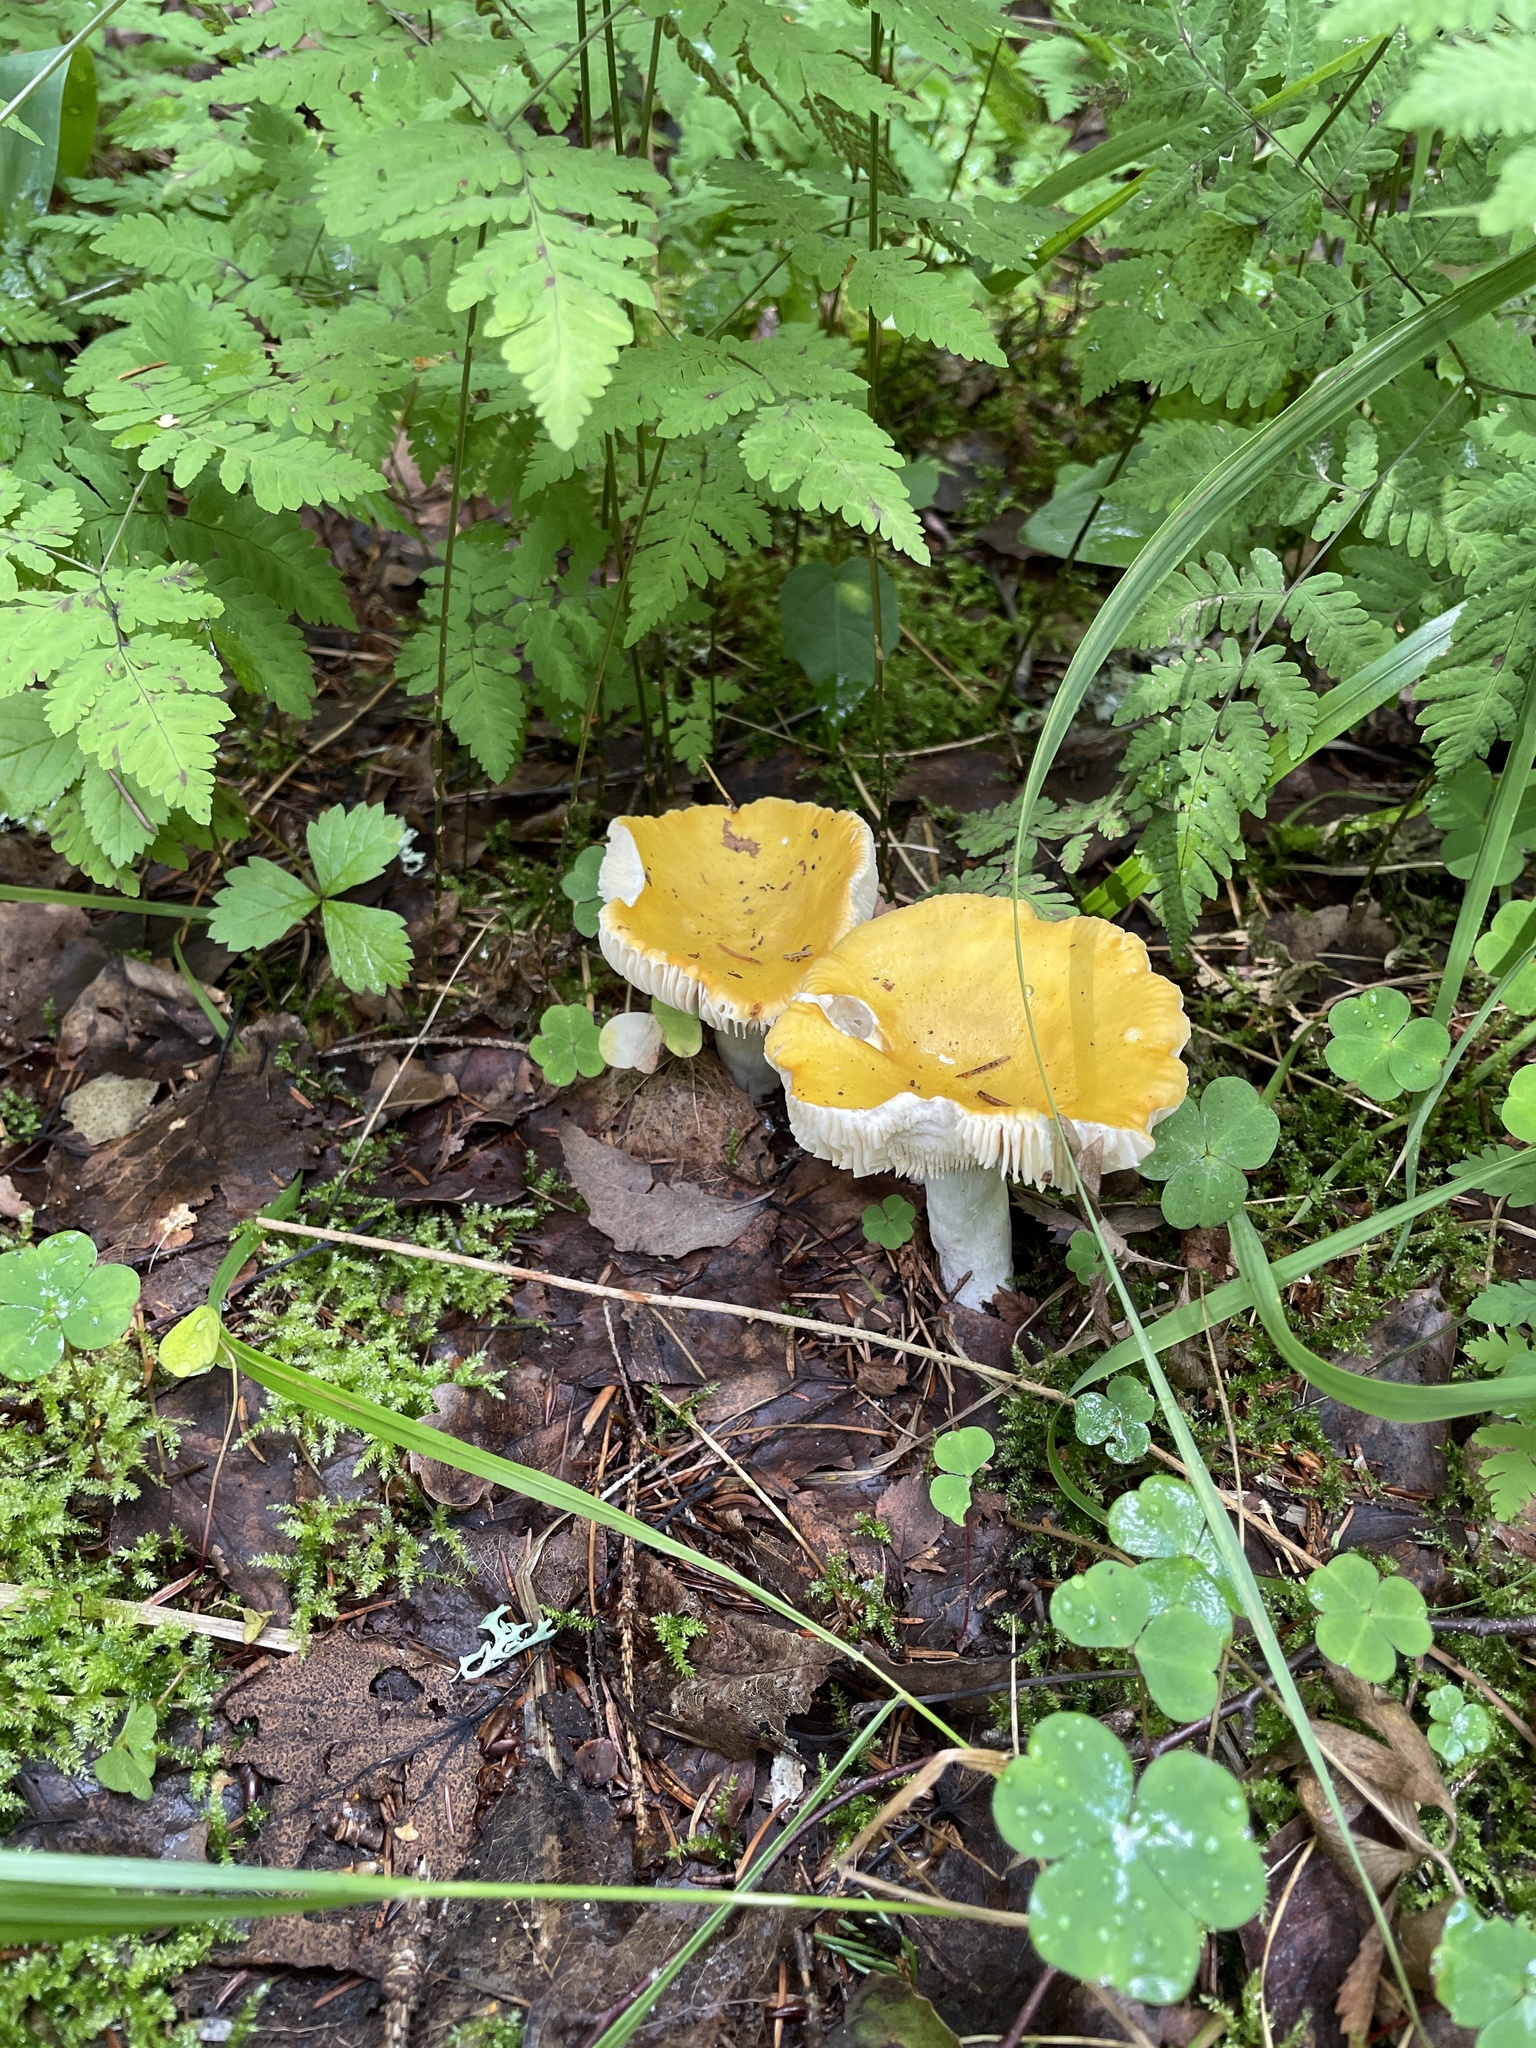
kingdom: Fungi
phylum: Basidiomycota
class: Agaricomycetes
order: Russulales
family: Russulaceae
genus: Russula
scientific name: Russula claroflava
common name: The yellow swamp brittlegill
